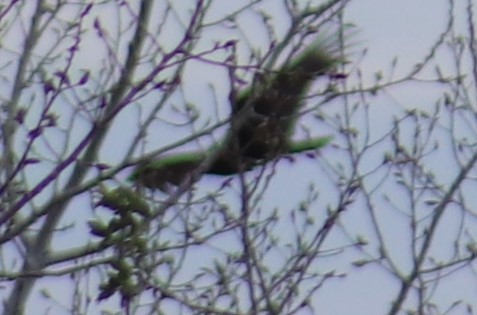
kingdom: Animalia
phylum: Chordata
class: Aves
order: Accipitriformes
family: Cathartidae
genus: Cathartes
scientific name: Cathartes aura
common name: Turkey vulture
